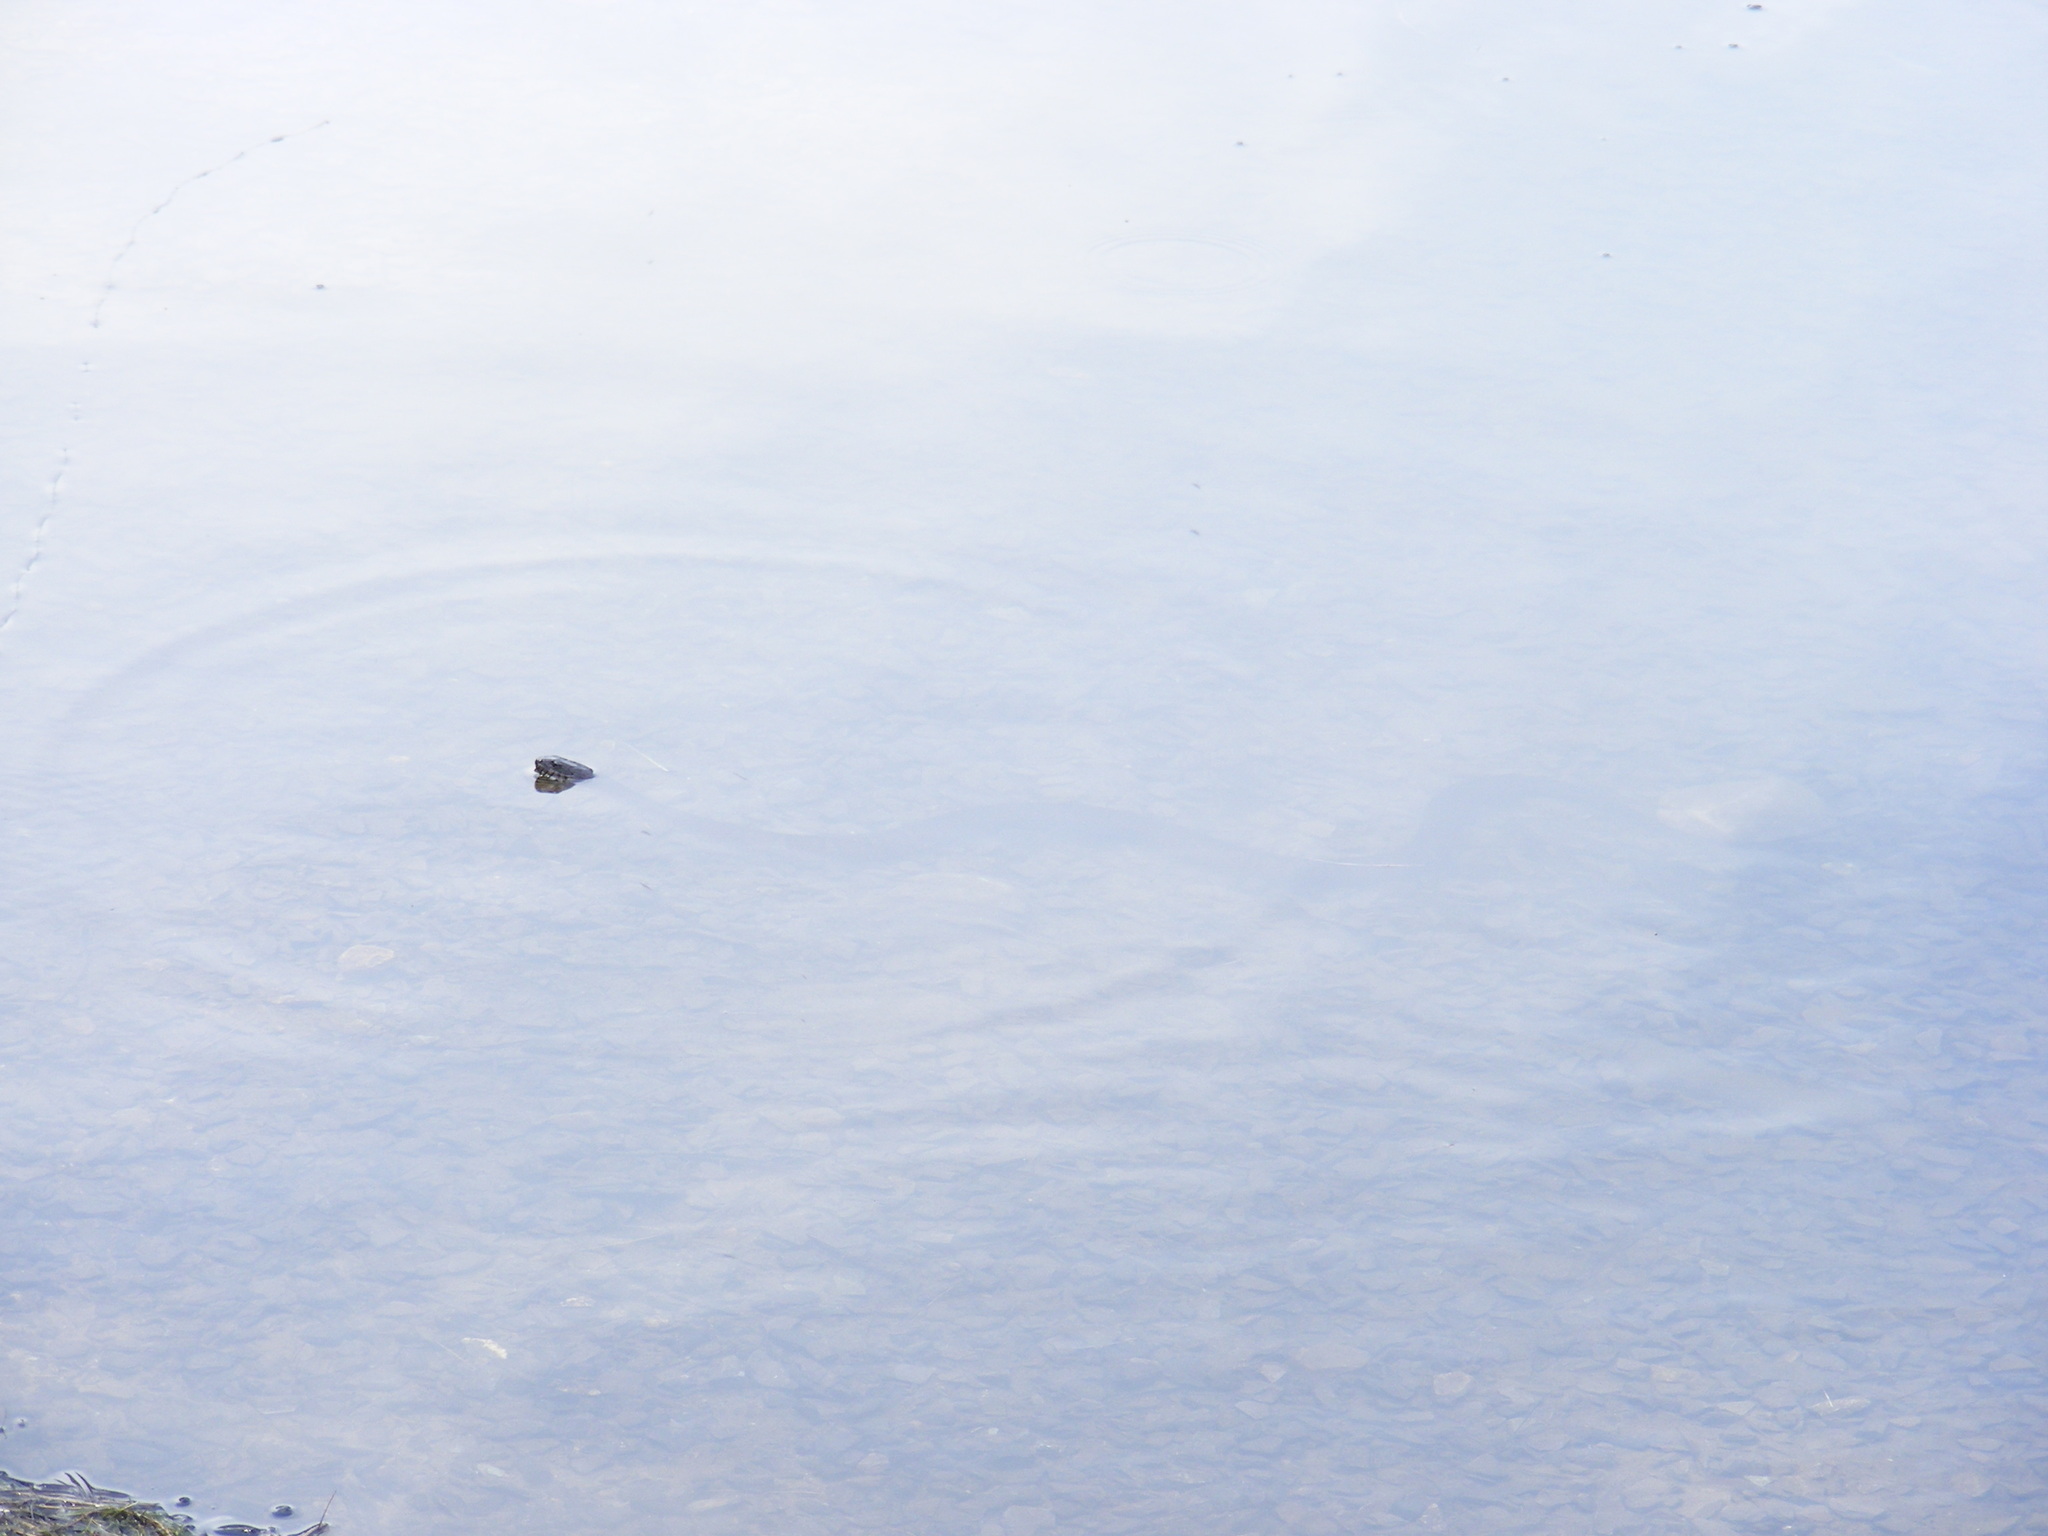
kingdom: Animalia
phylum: Chordata
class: Squamata
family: Colubridae
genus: Nerodia
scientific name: Nerodia sipedon
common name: Northern water snake
